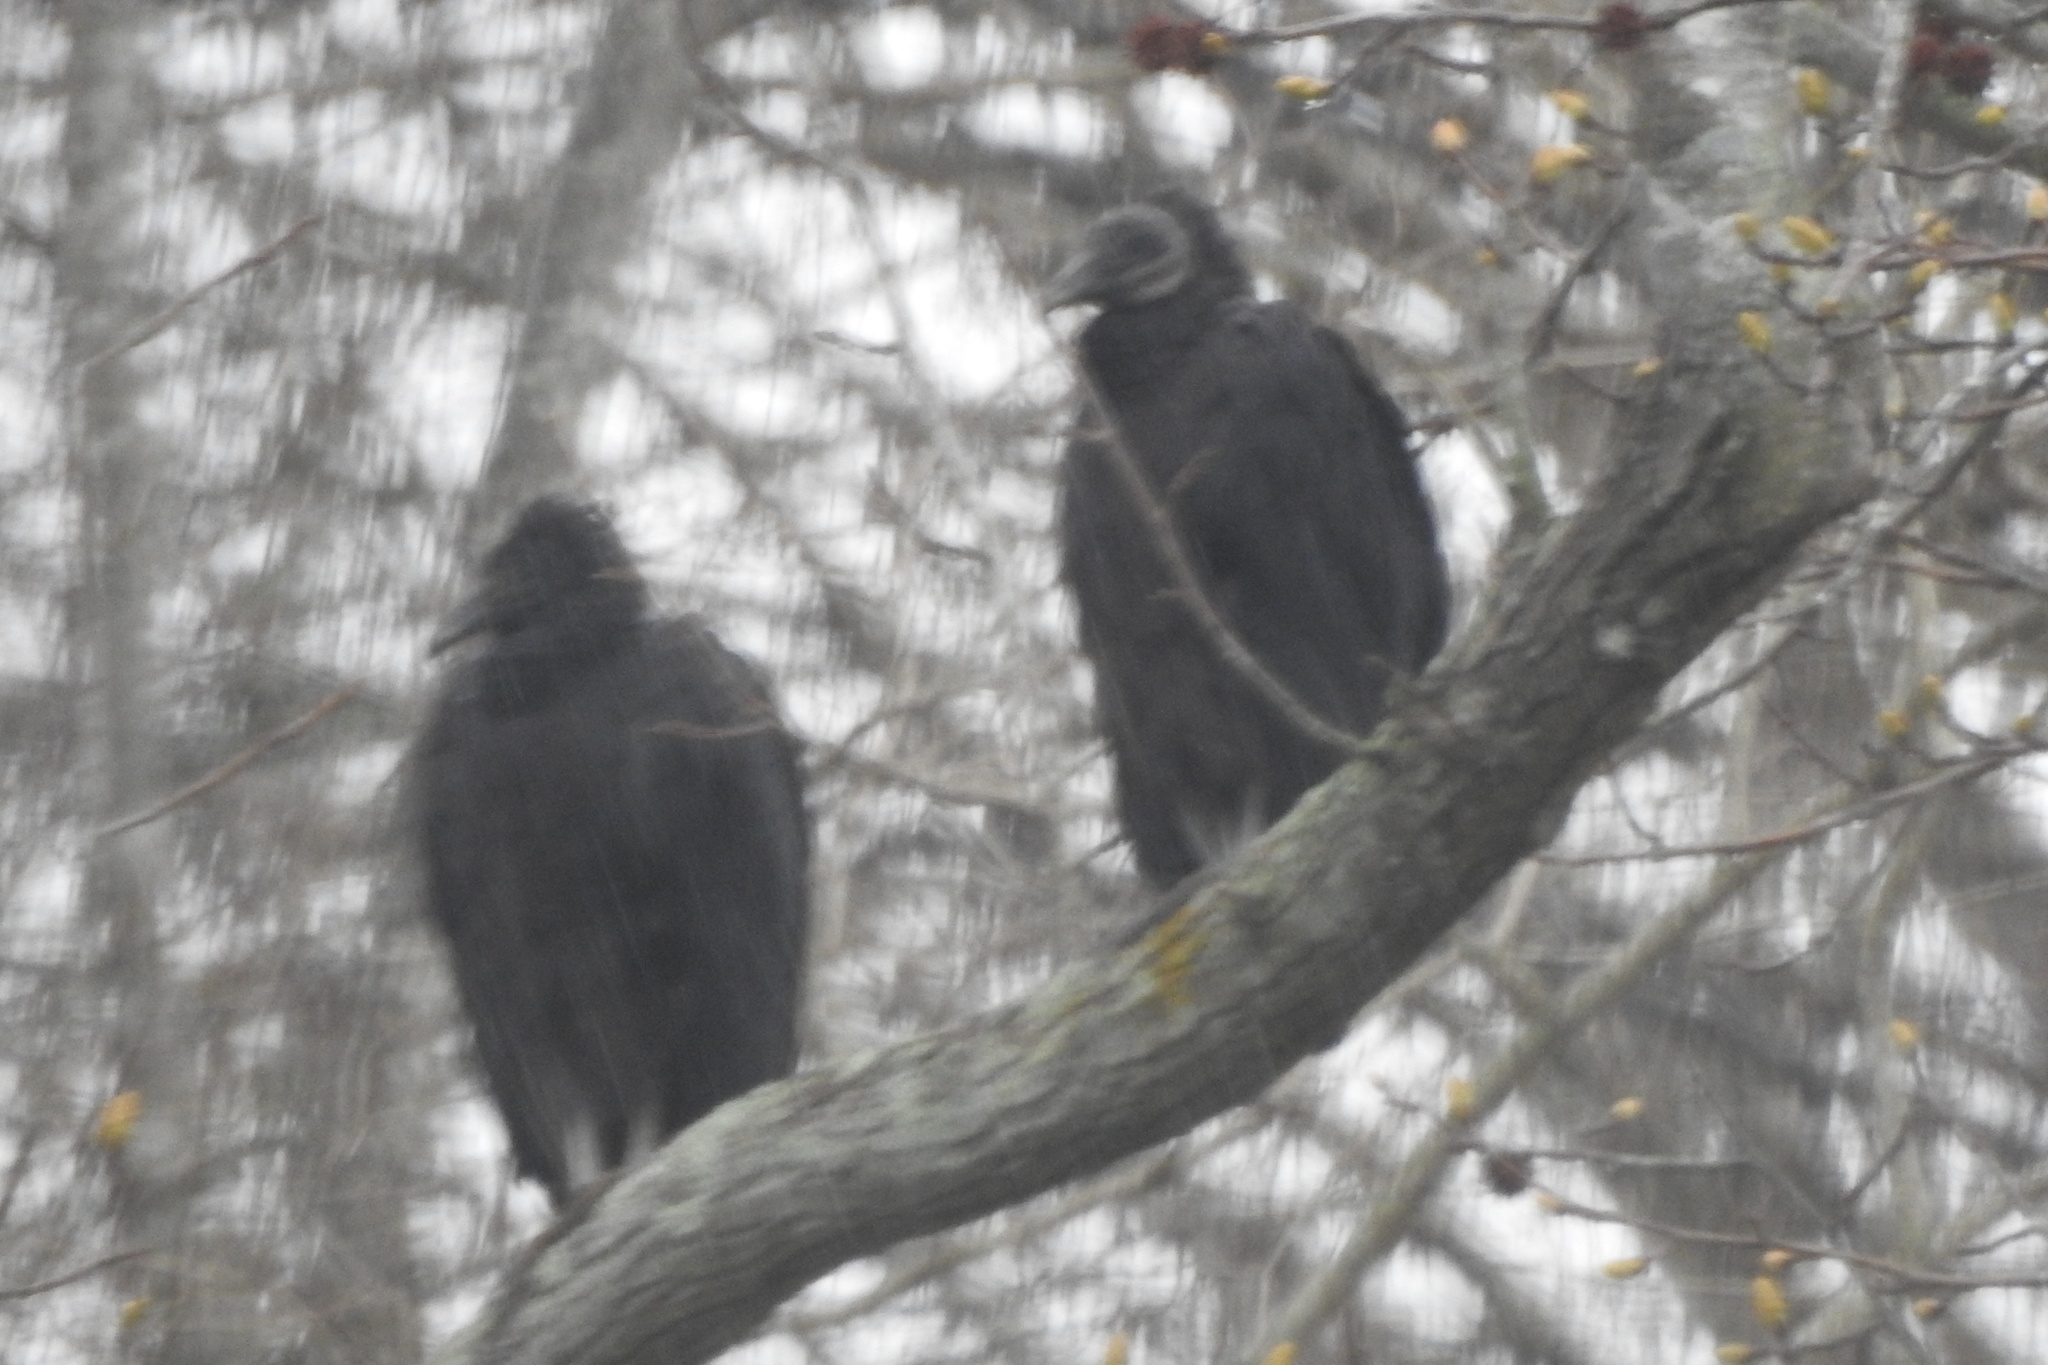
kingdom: Animalia
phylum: Chordata
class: Aves
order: Accipitriformes
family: Cathartidae
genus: Coragyps
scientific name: Coragyps atratus
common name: Black vulture
